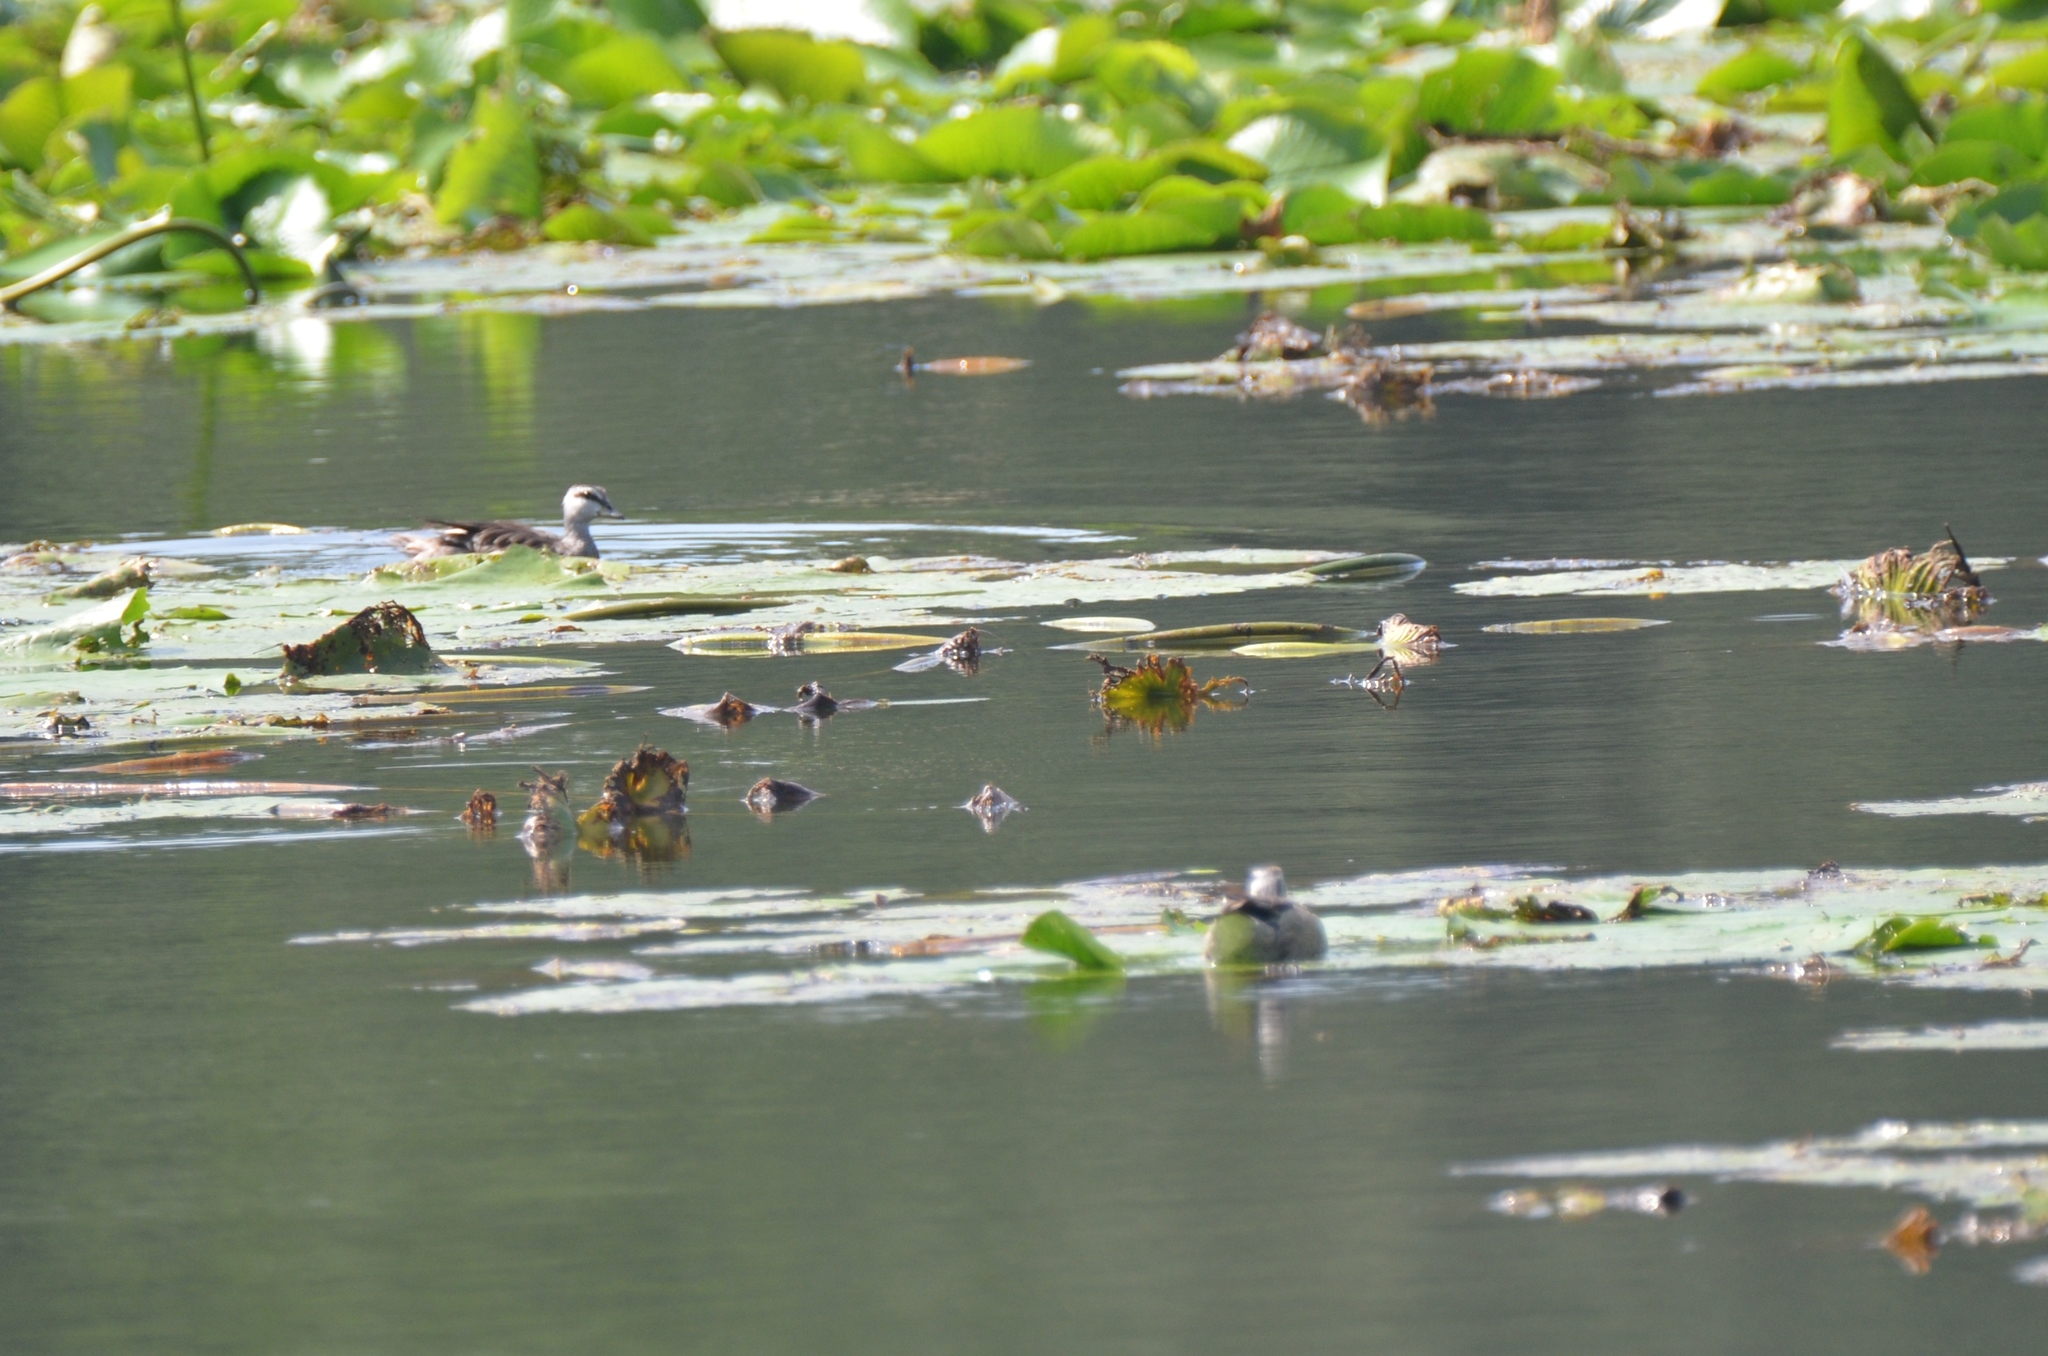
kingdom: Animalia
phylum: Chordata
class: Aves
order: Anseriformes
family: Anatidae
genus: Nettapus
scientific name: Nettapus coromandelianus
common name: Cotton pygmy-goose
